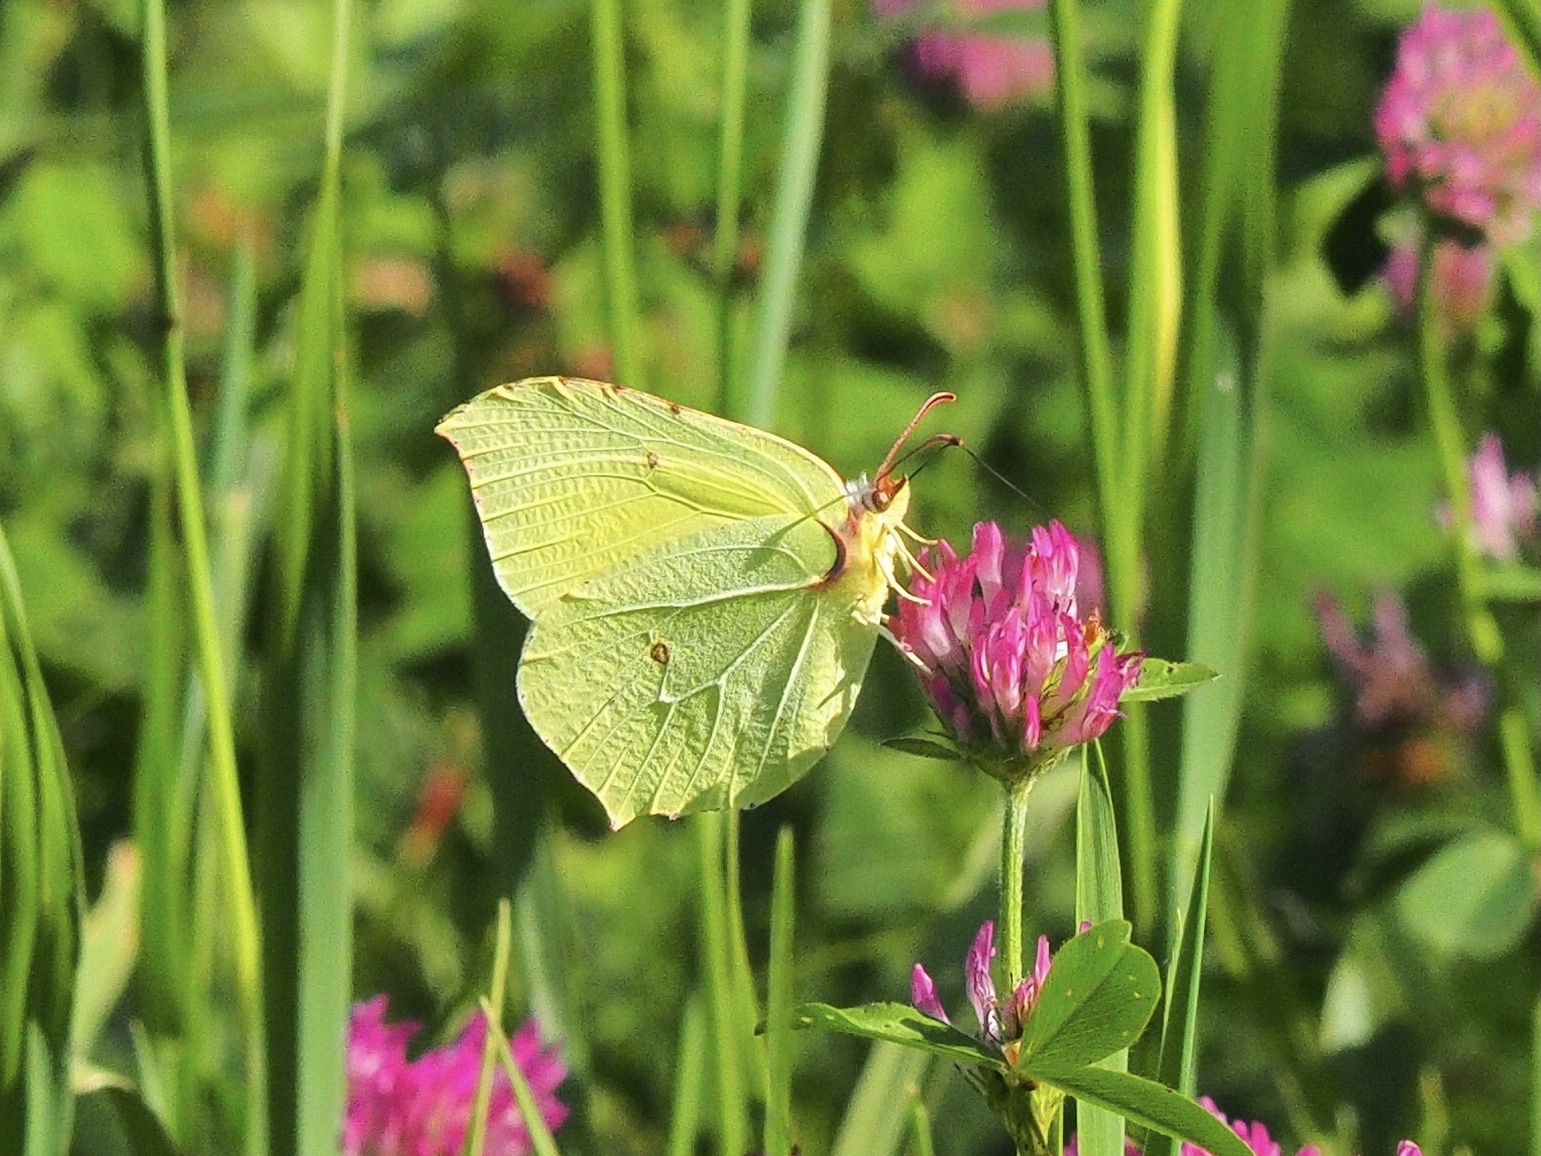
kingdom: Animalia
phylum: Arthropoda
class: Insecta
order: Lepidoptera
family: Pieridae
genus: Gonepteryx
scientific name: Gonepteryx rhamni
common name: Brimstone
